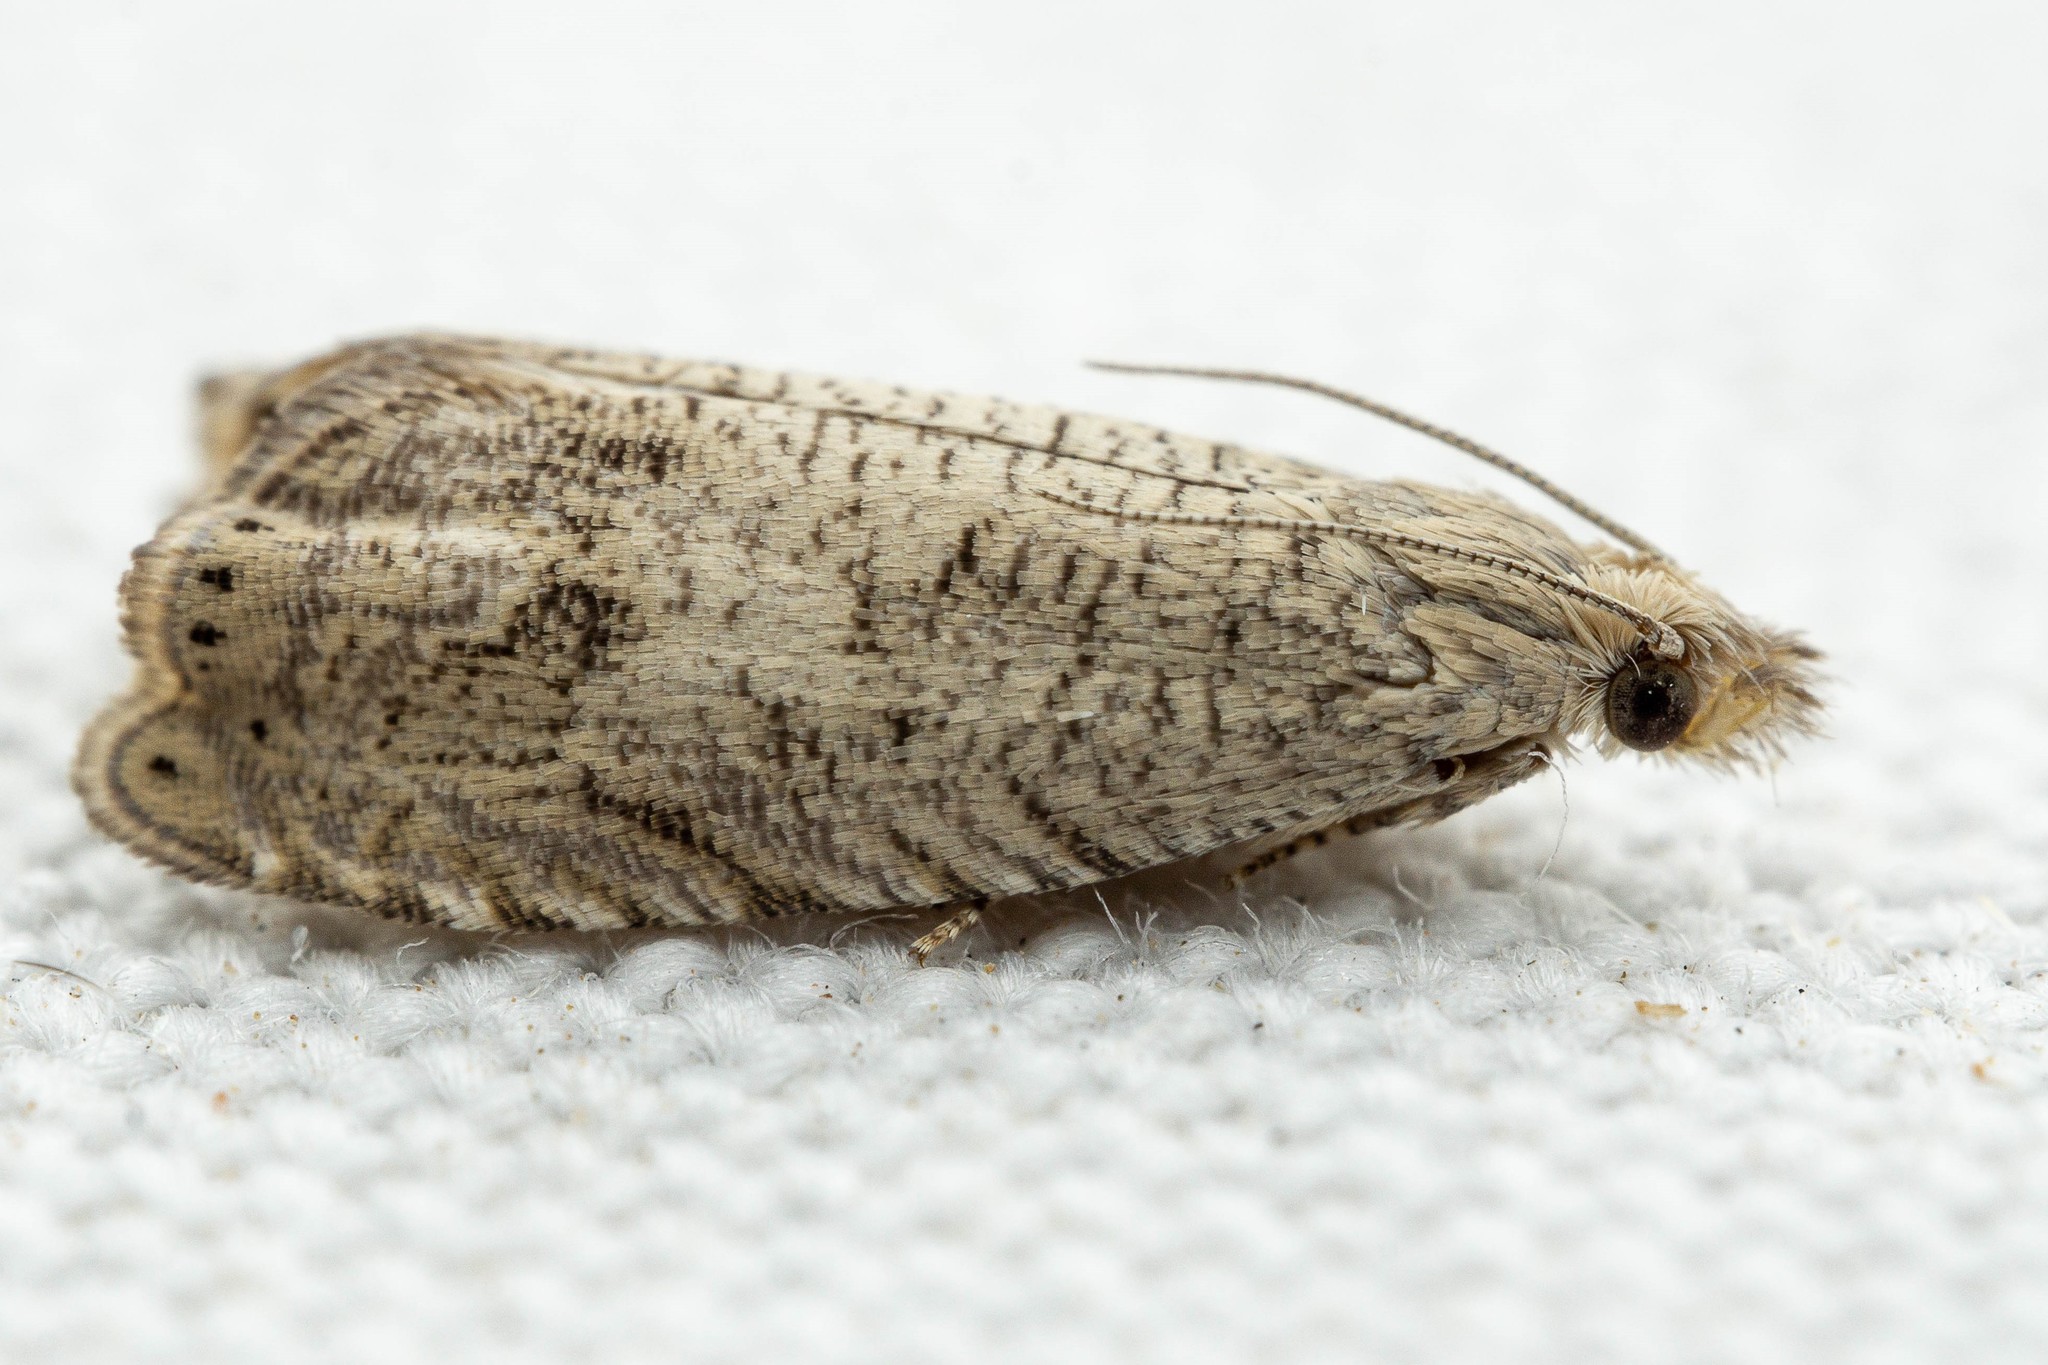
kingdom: Animalia
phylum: Arthropoda
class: Insecta
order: Lepidoptera
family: Tortricidae
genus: Grapholita
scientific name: Grapholita hieroglyphana
